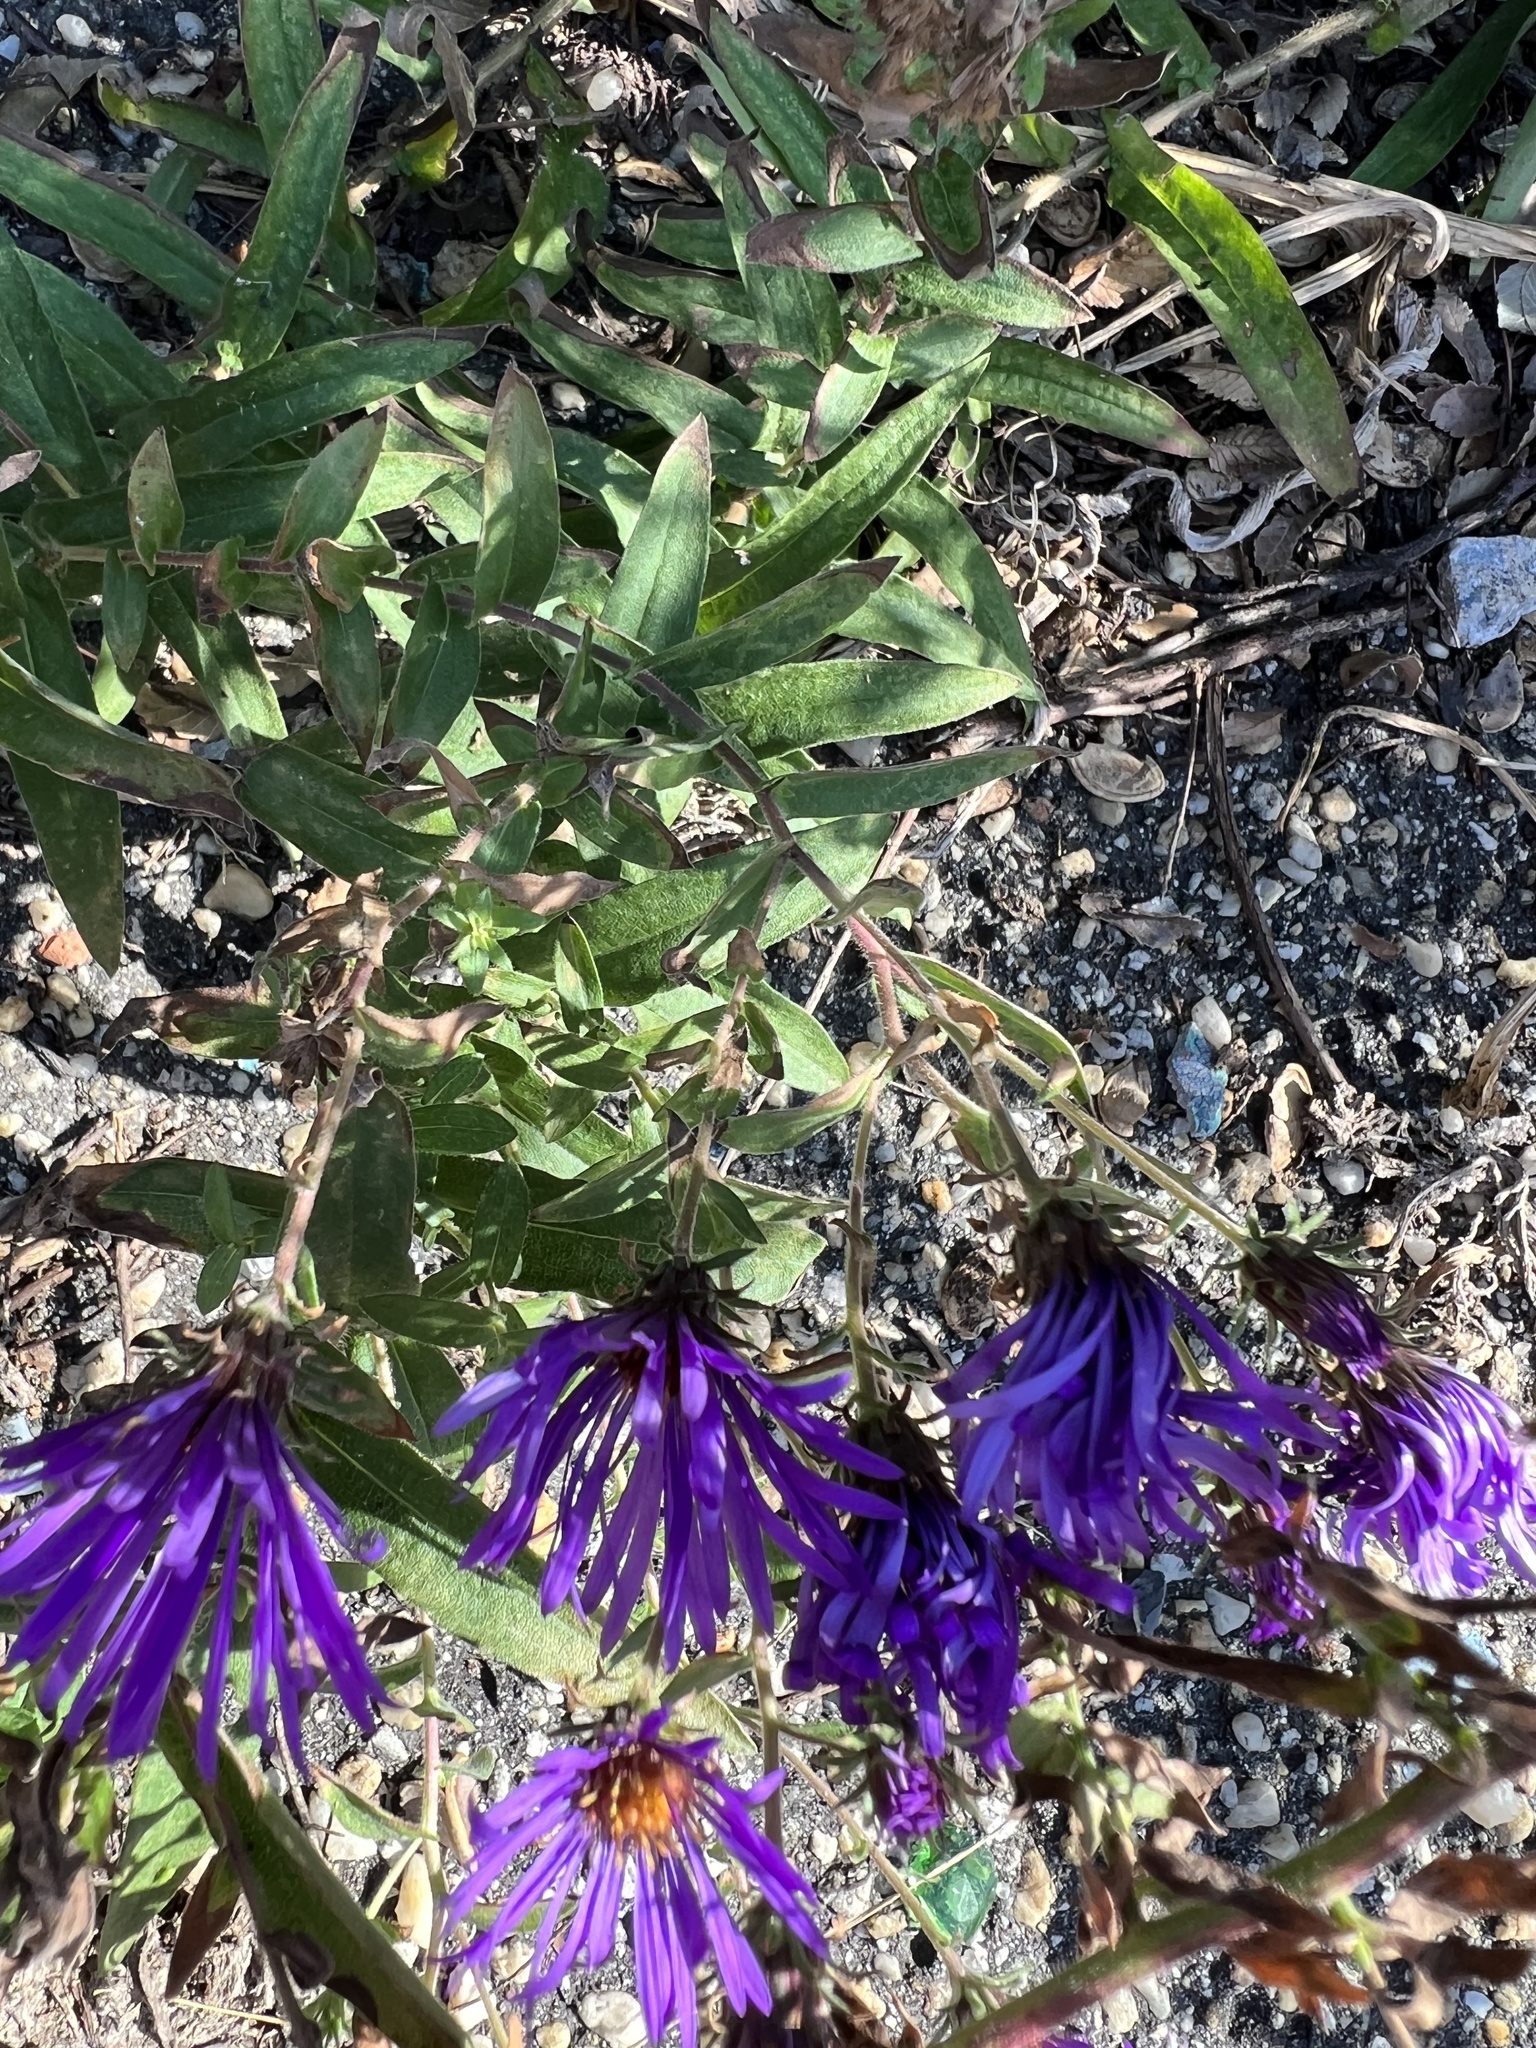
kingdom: Plantae
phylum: Tracheophyta
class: Magnoliopsida
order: Asterales
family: Asteraceae
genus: Symphyotrichum
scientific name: Symphyotrichum novae-angliae
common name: Michaelmas daisy
